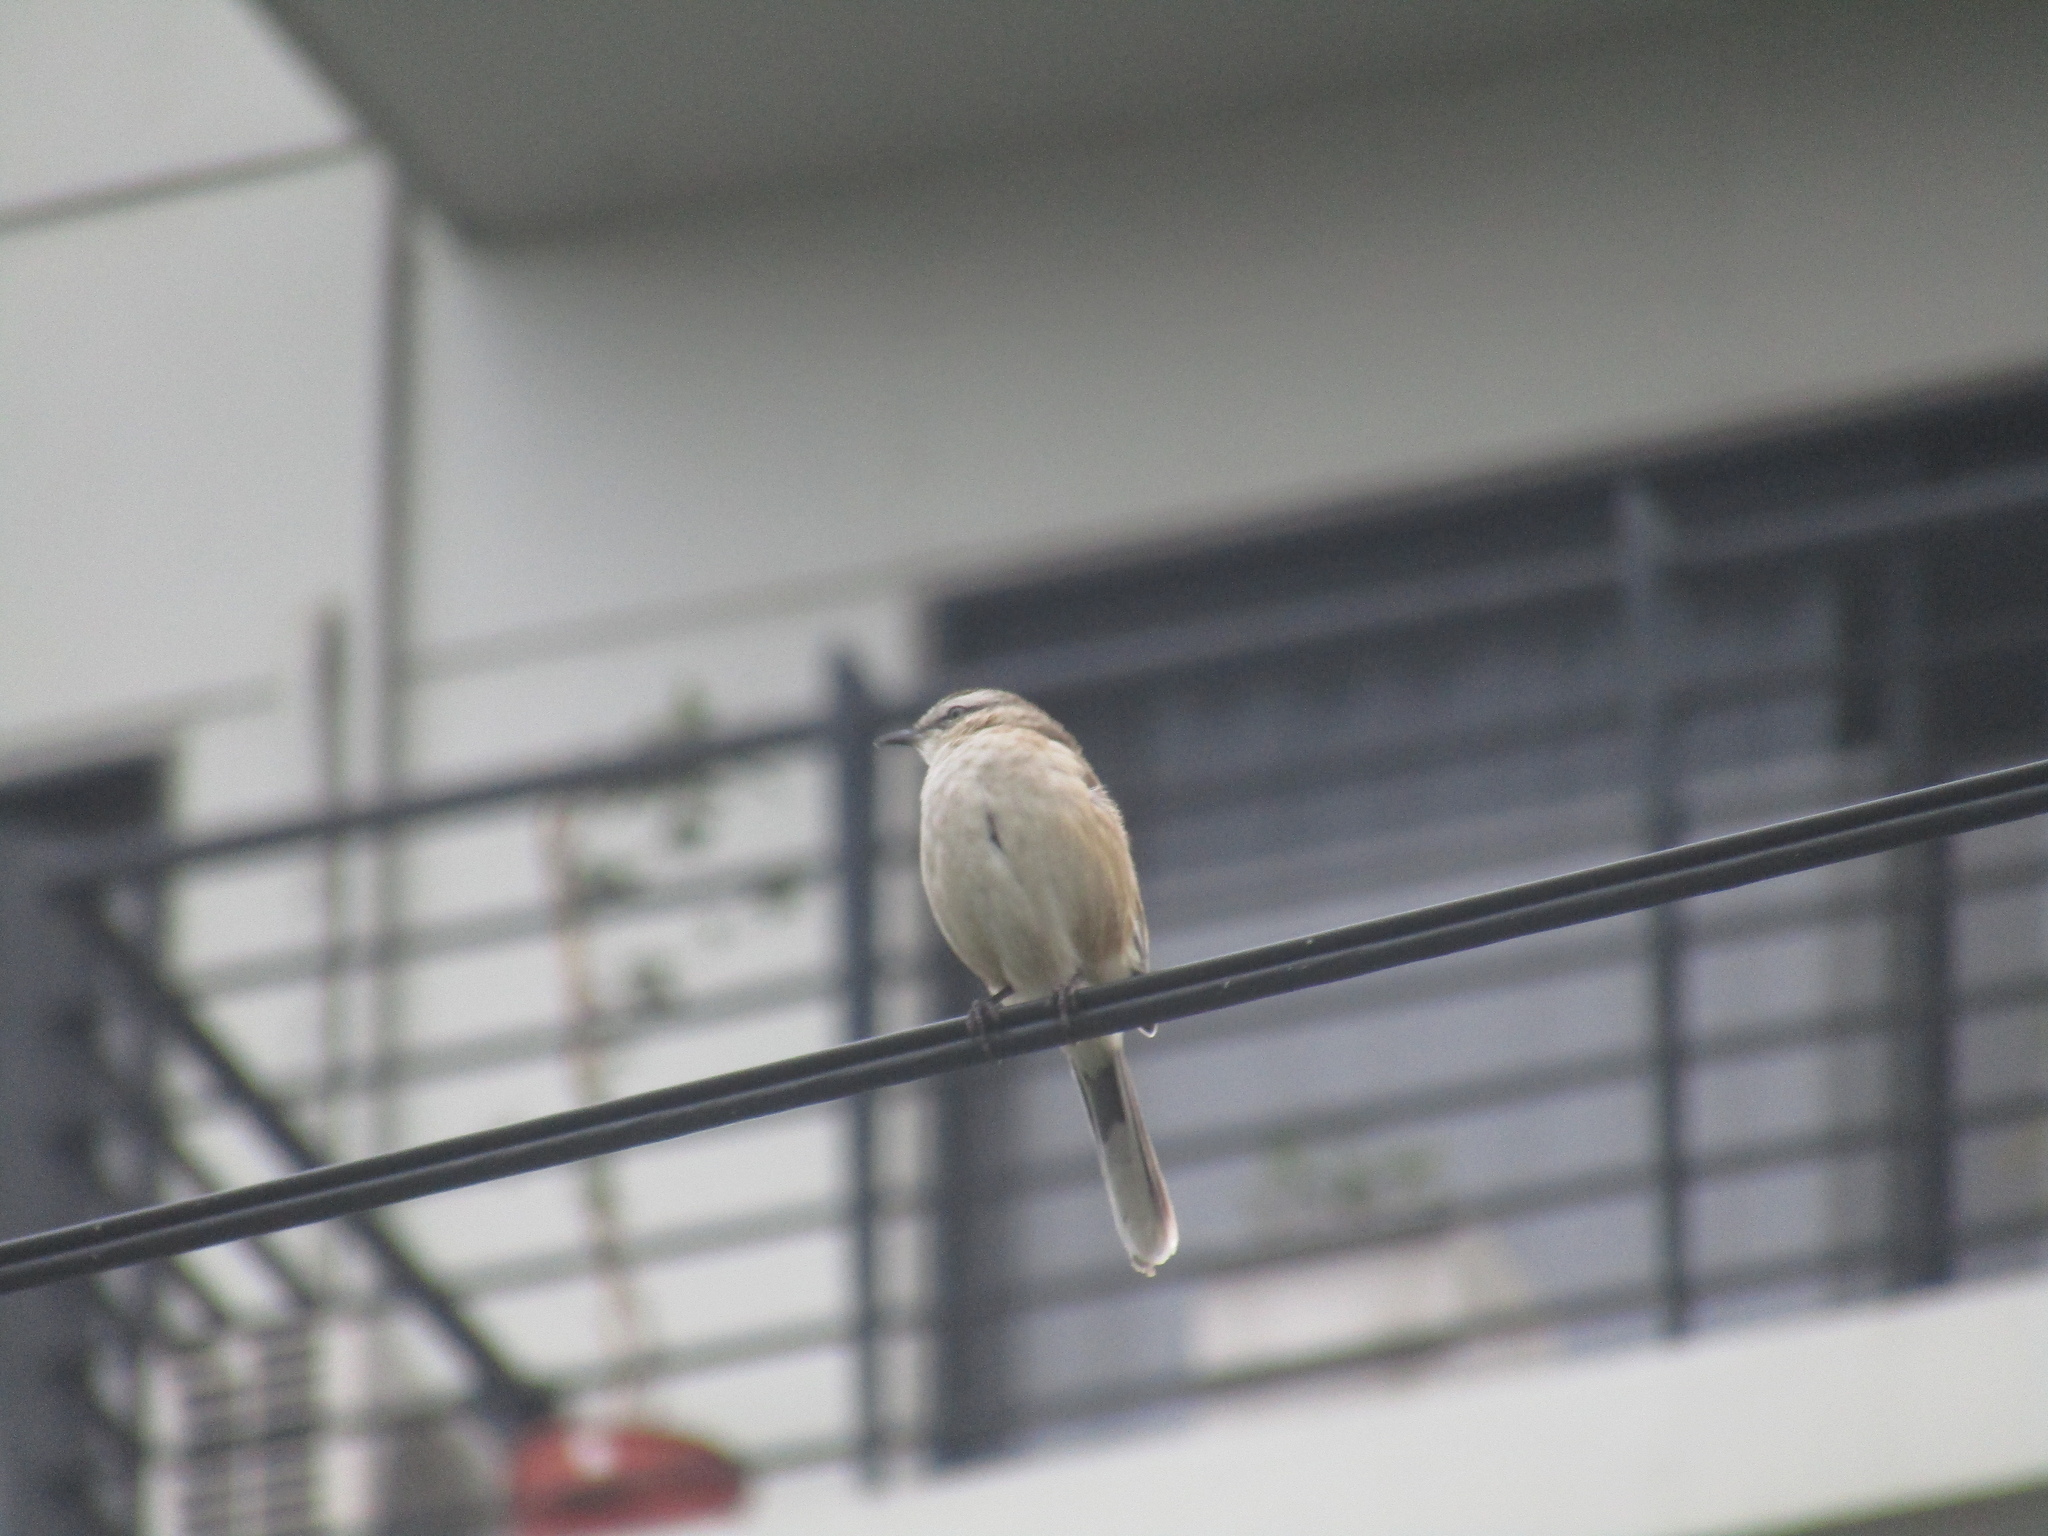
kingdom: Animalia
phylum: Chordata
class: Aves
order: Passeriformes
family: Mimidae
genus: Mimus
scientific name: Mimus saturninus
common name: Chalk-browed mockingbird
